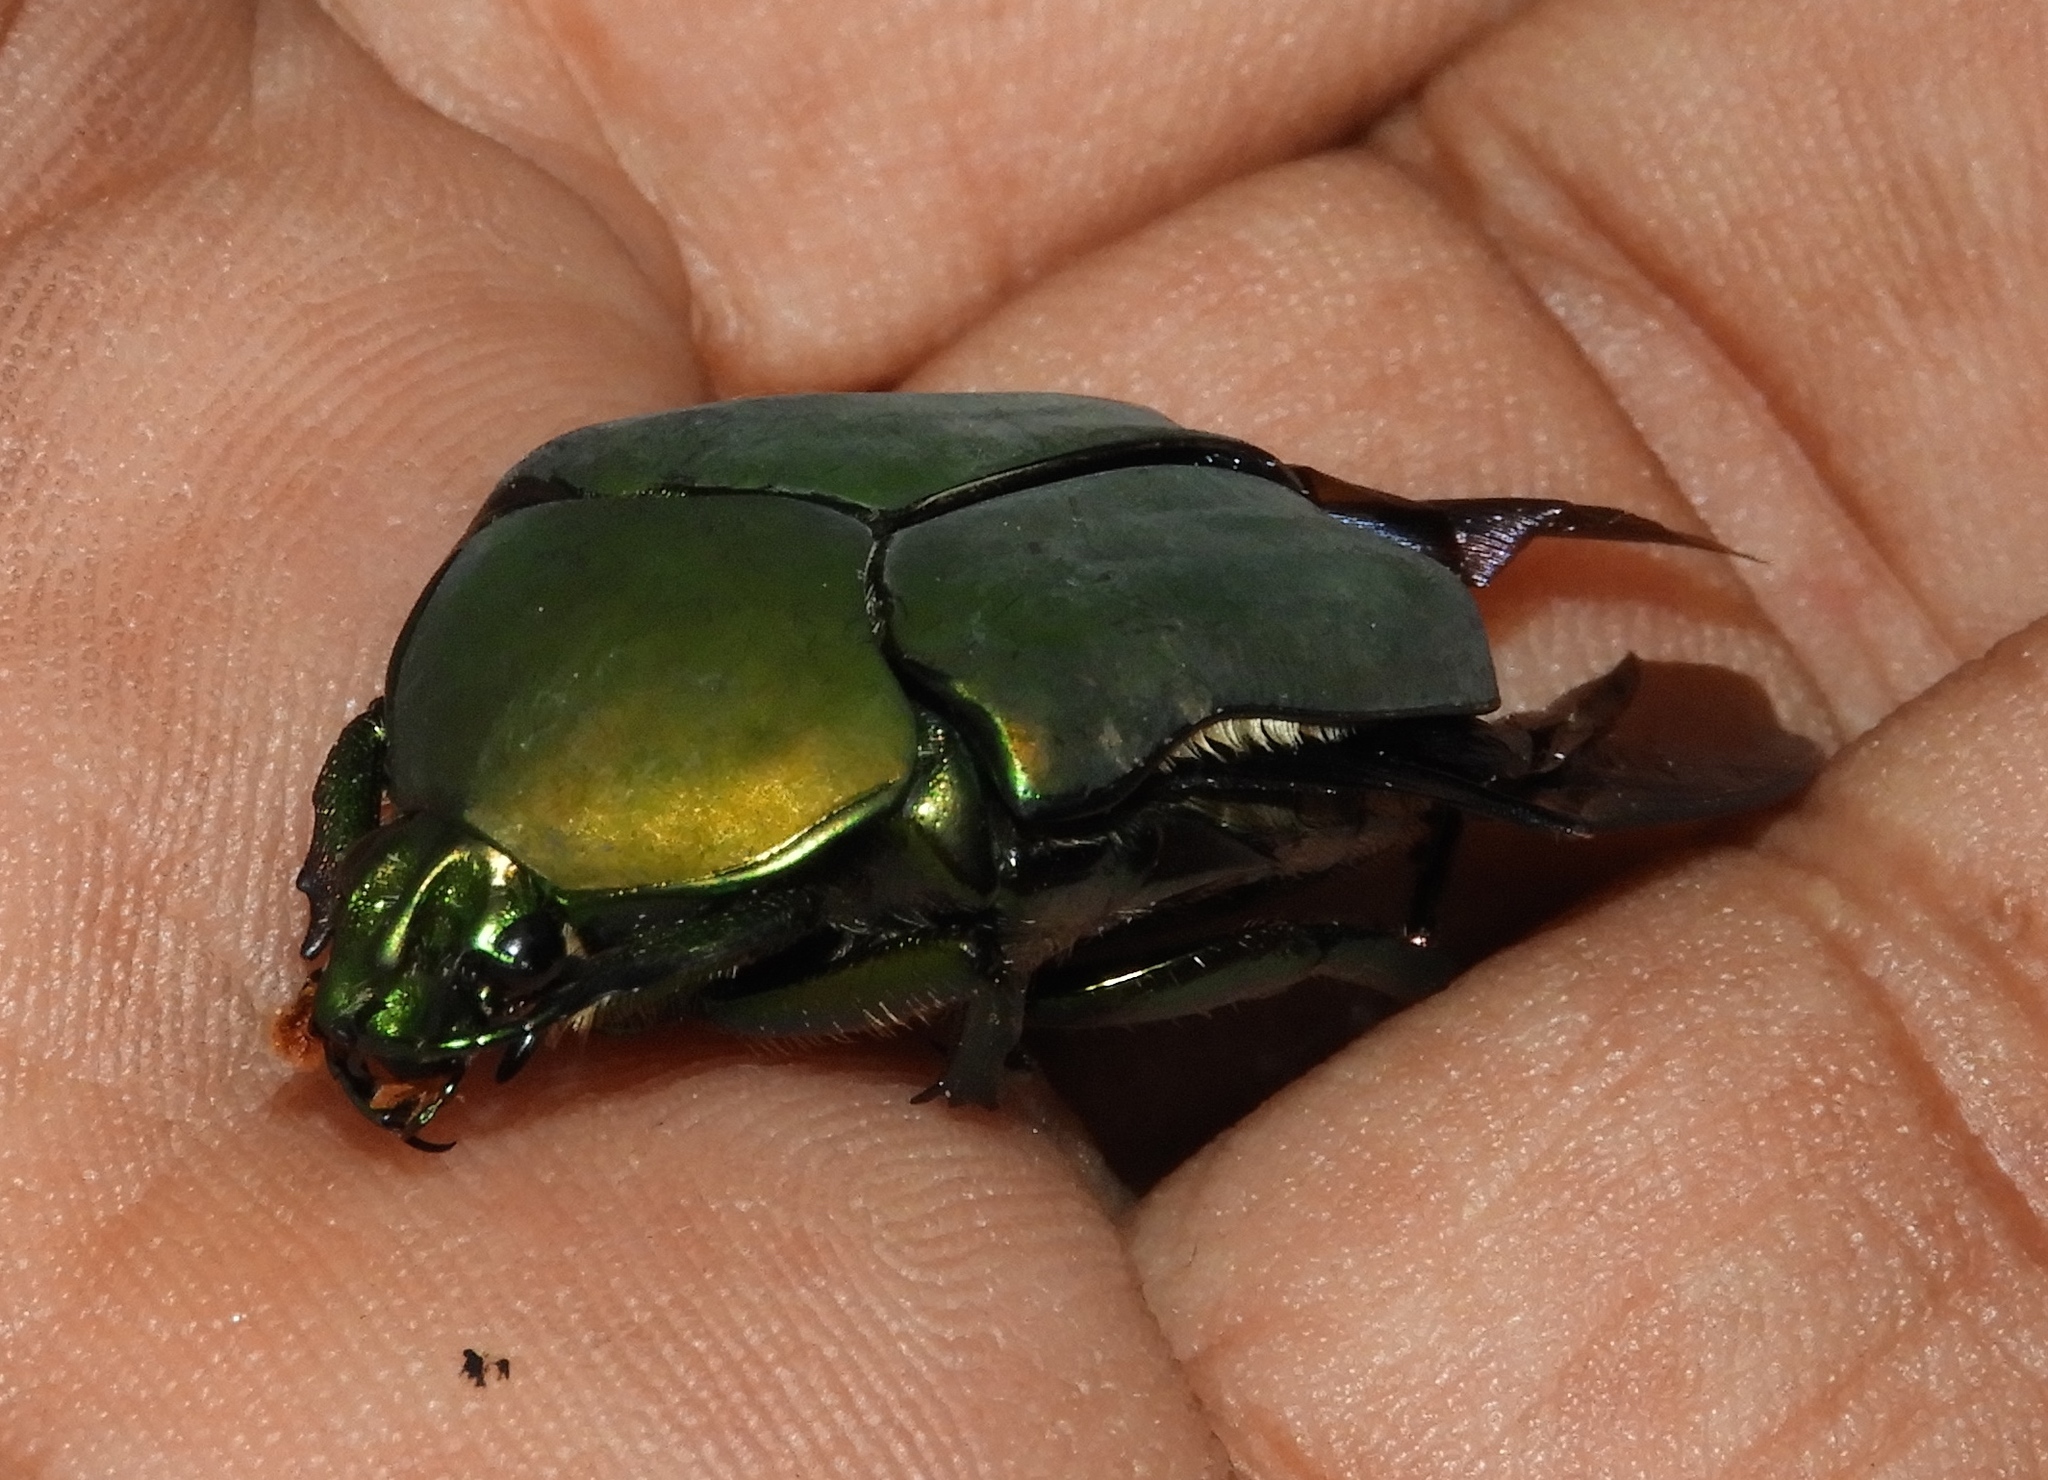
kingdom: Animalia
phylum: Arthropoda
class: Insecta
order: Coleoptera
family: Scarabaeidae
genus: Cotinis
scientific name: Cotinis mutabilis
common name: Figeater beetle
